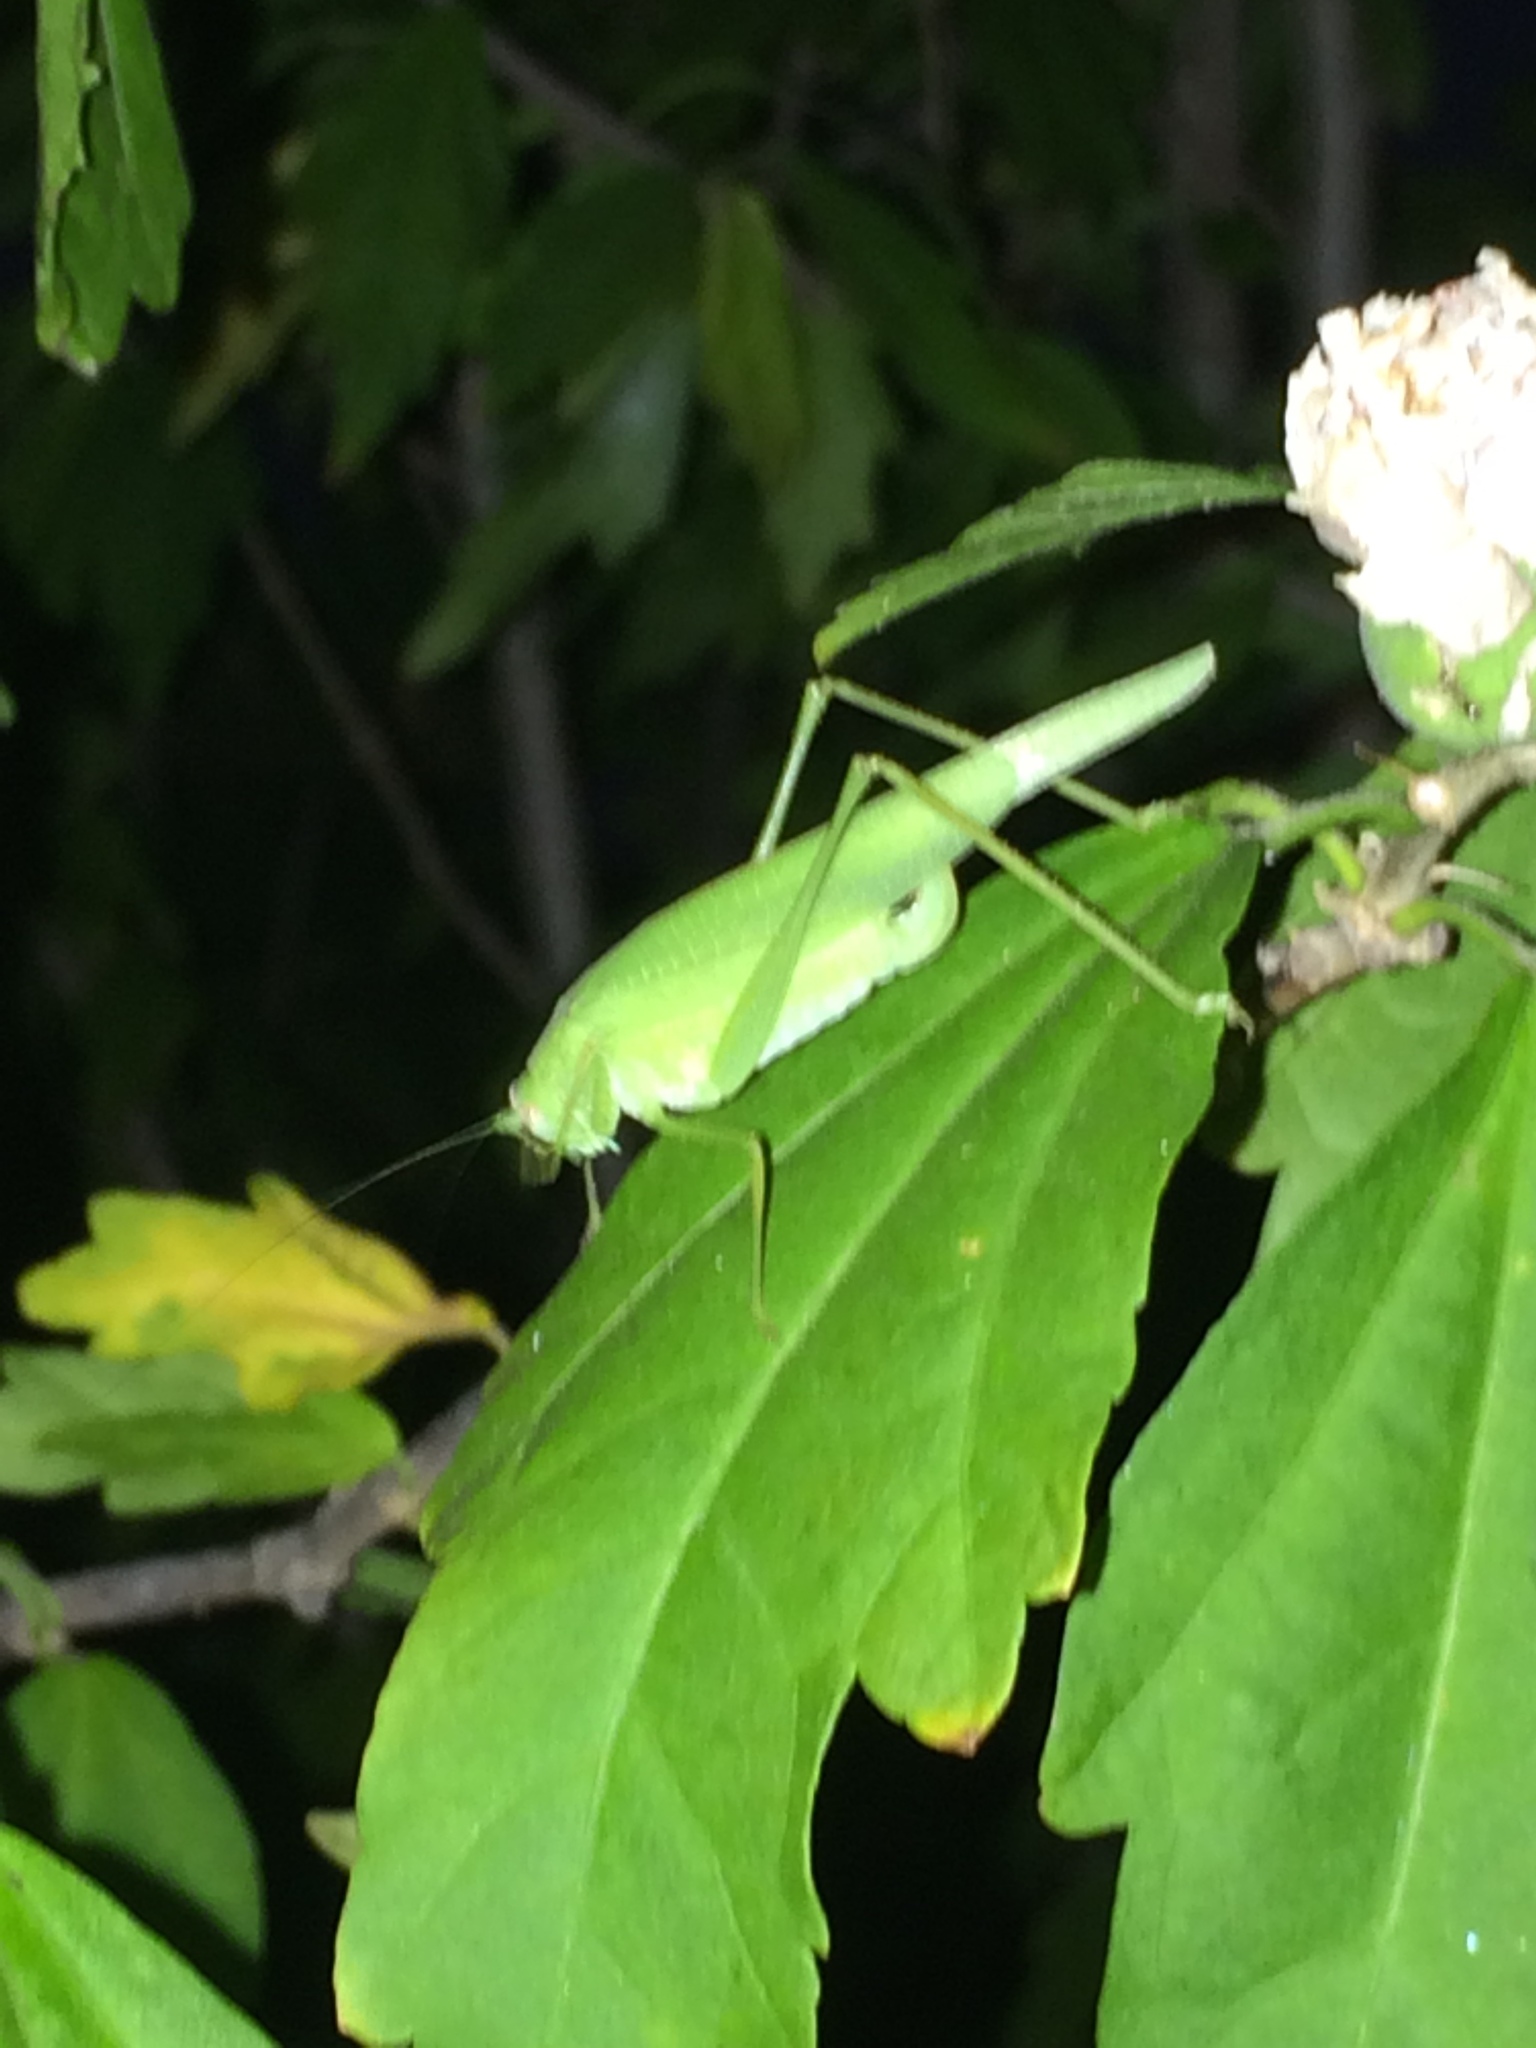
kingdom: Animalia
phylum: Arthropoda
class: Insecta
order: Orthoptera
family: Tettigoniidae
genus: Phaneroptera
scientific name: Phaneroptera nana
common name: Southern sickle bush-cricket
